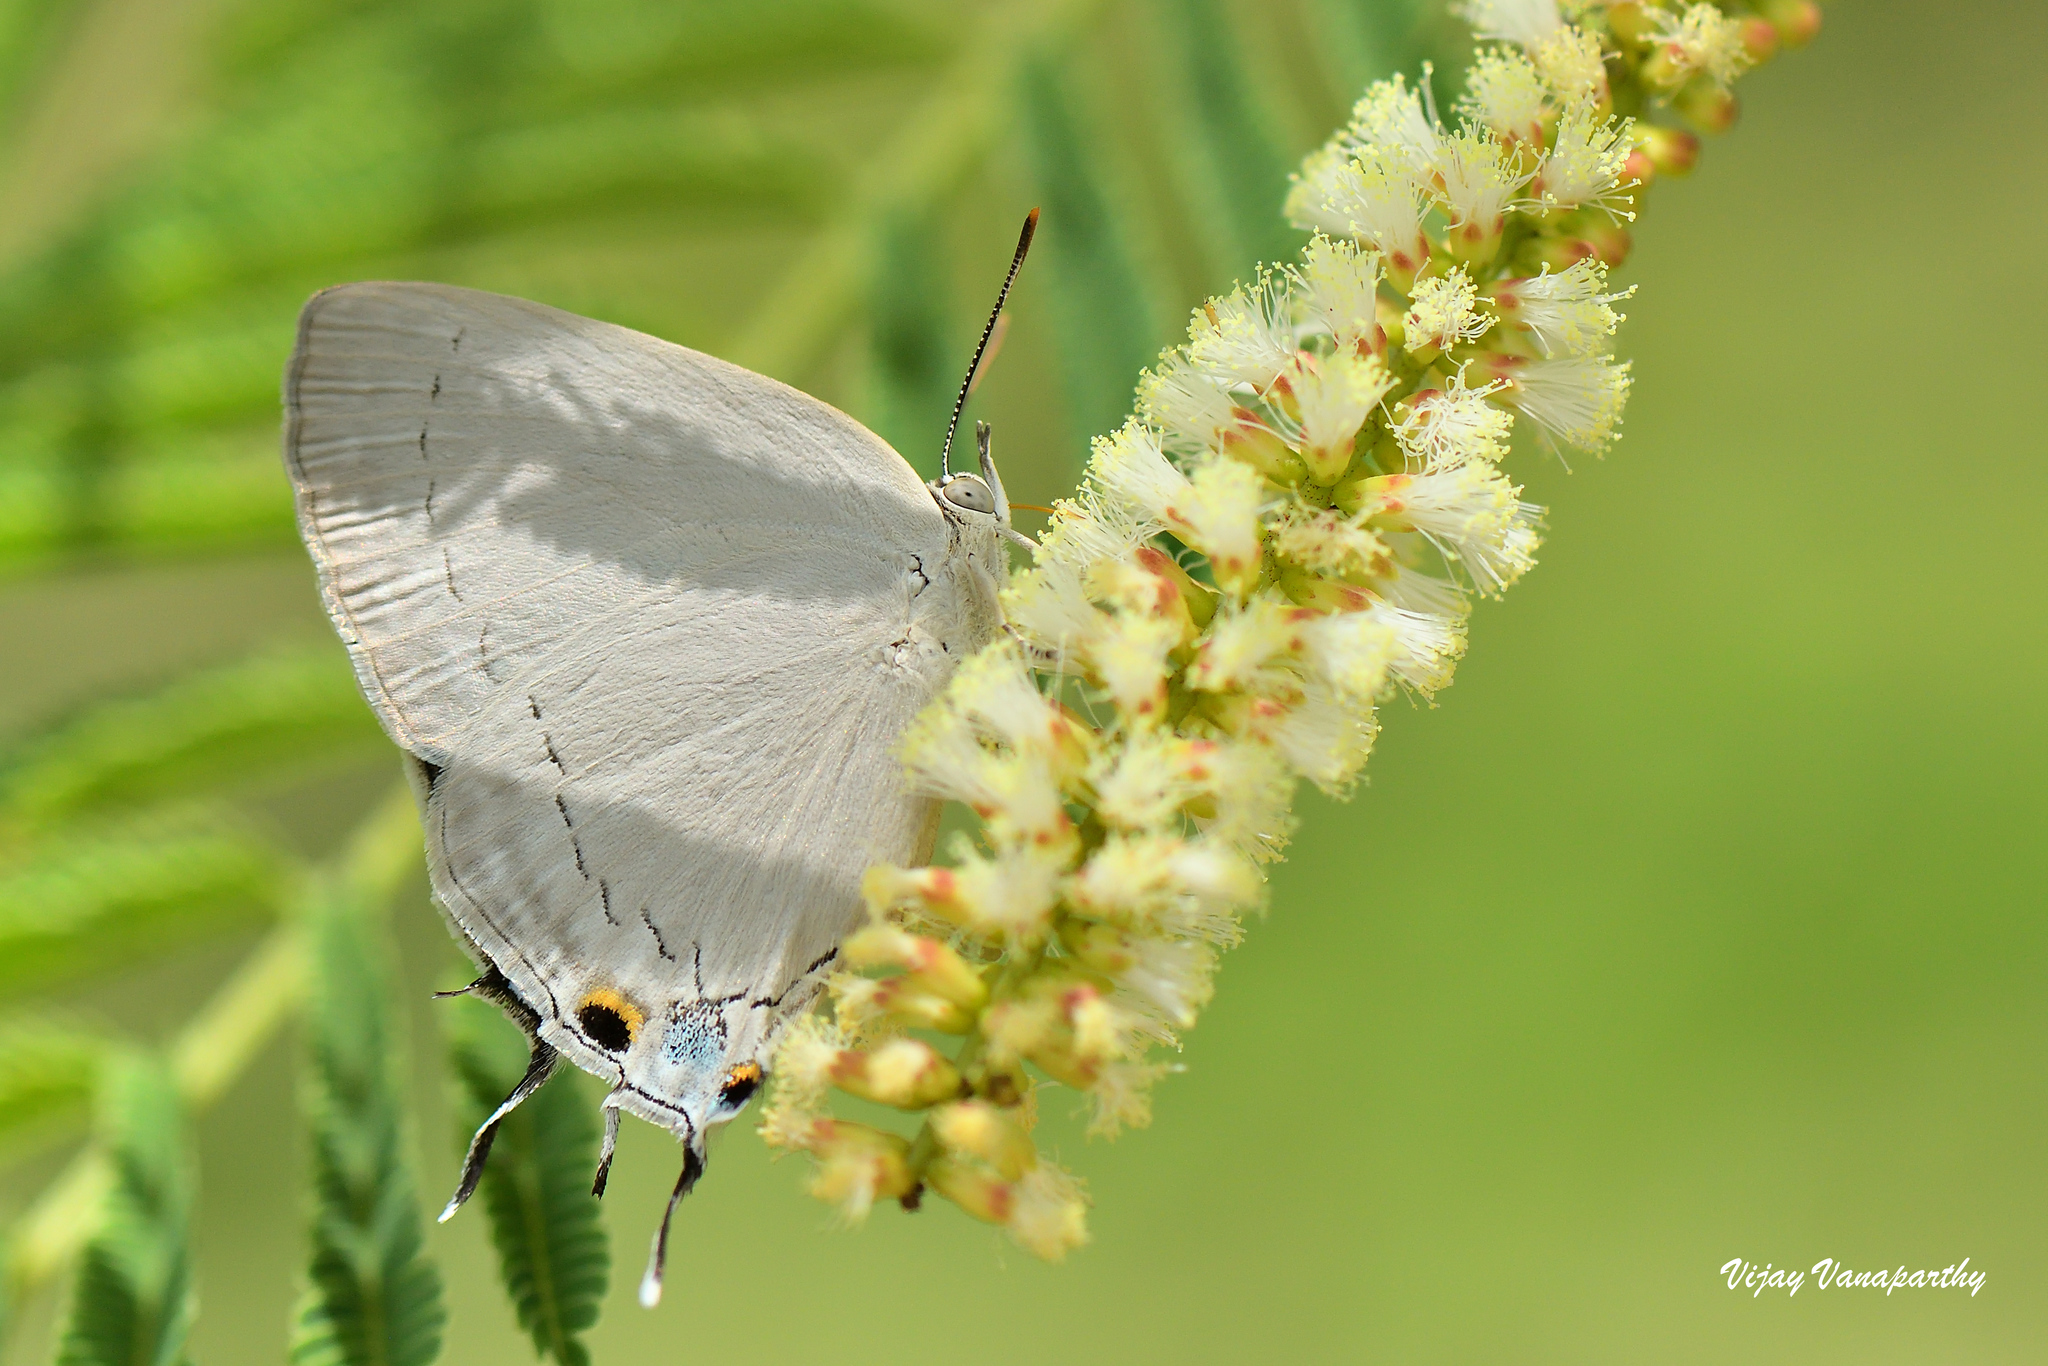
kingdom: Animalia
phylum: Arthropoda
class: Insecta
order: Lepidoptera
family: Lycaenidae
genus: Tajuria
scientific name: Tajuria jehana
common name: Plains blue royal
